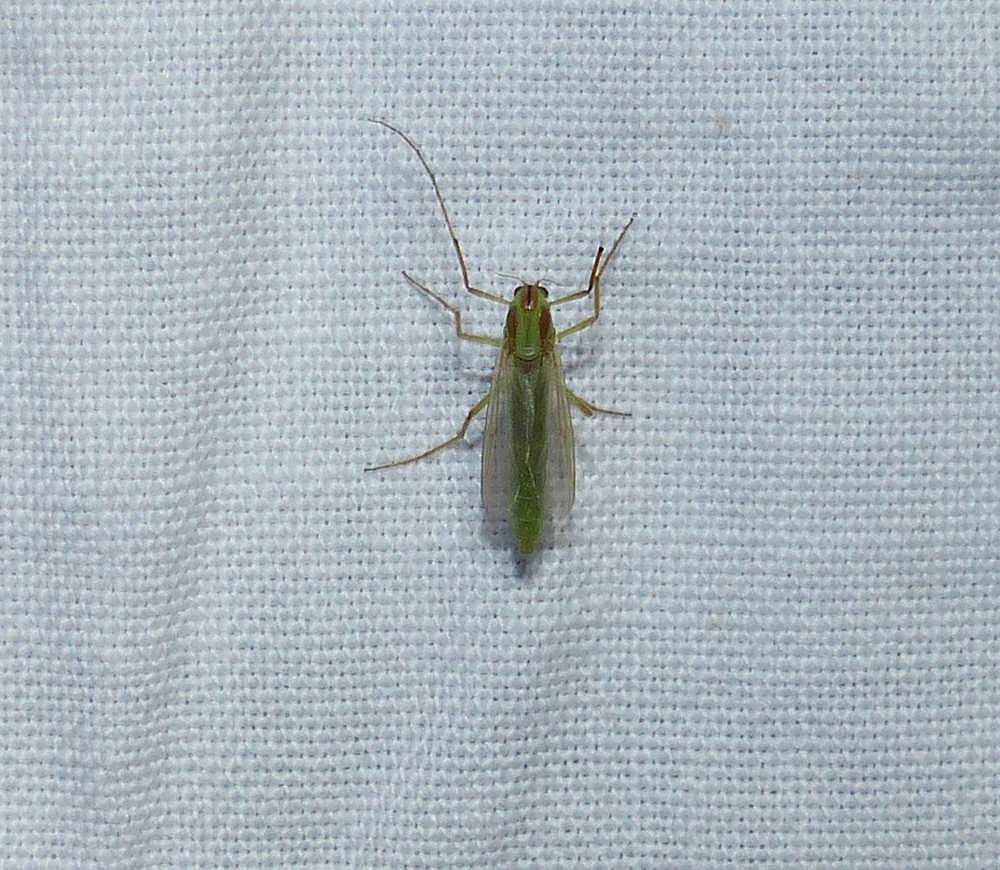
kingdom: Animalia
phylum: Arthropoda
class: Insecta
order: Diptera
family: Chironomidae
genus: Axarus
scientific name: Axarus
